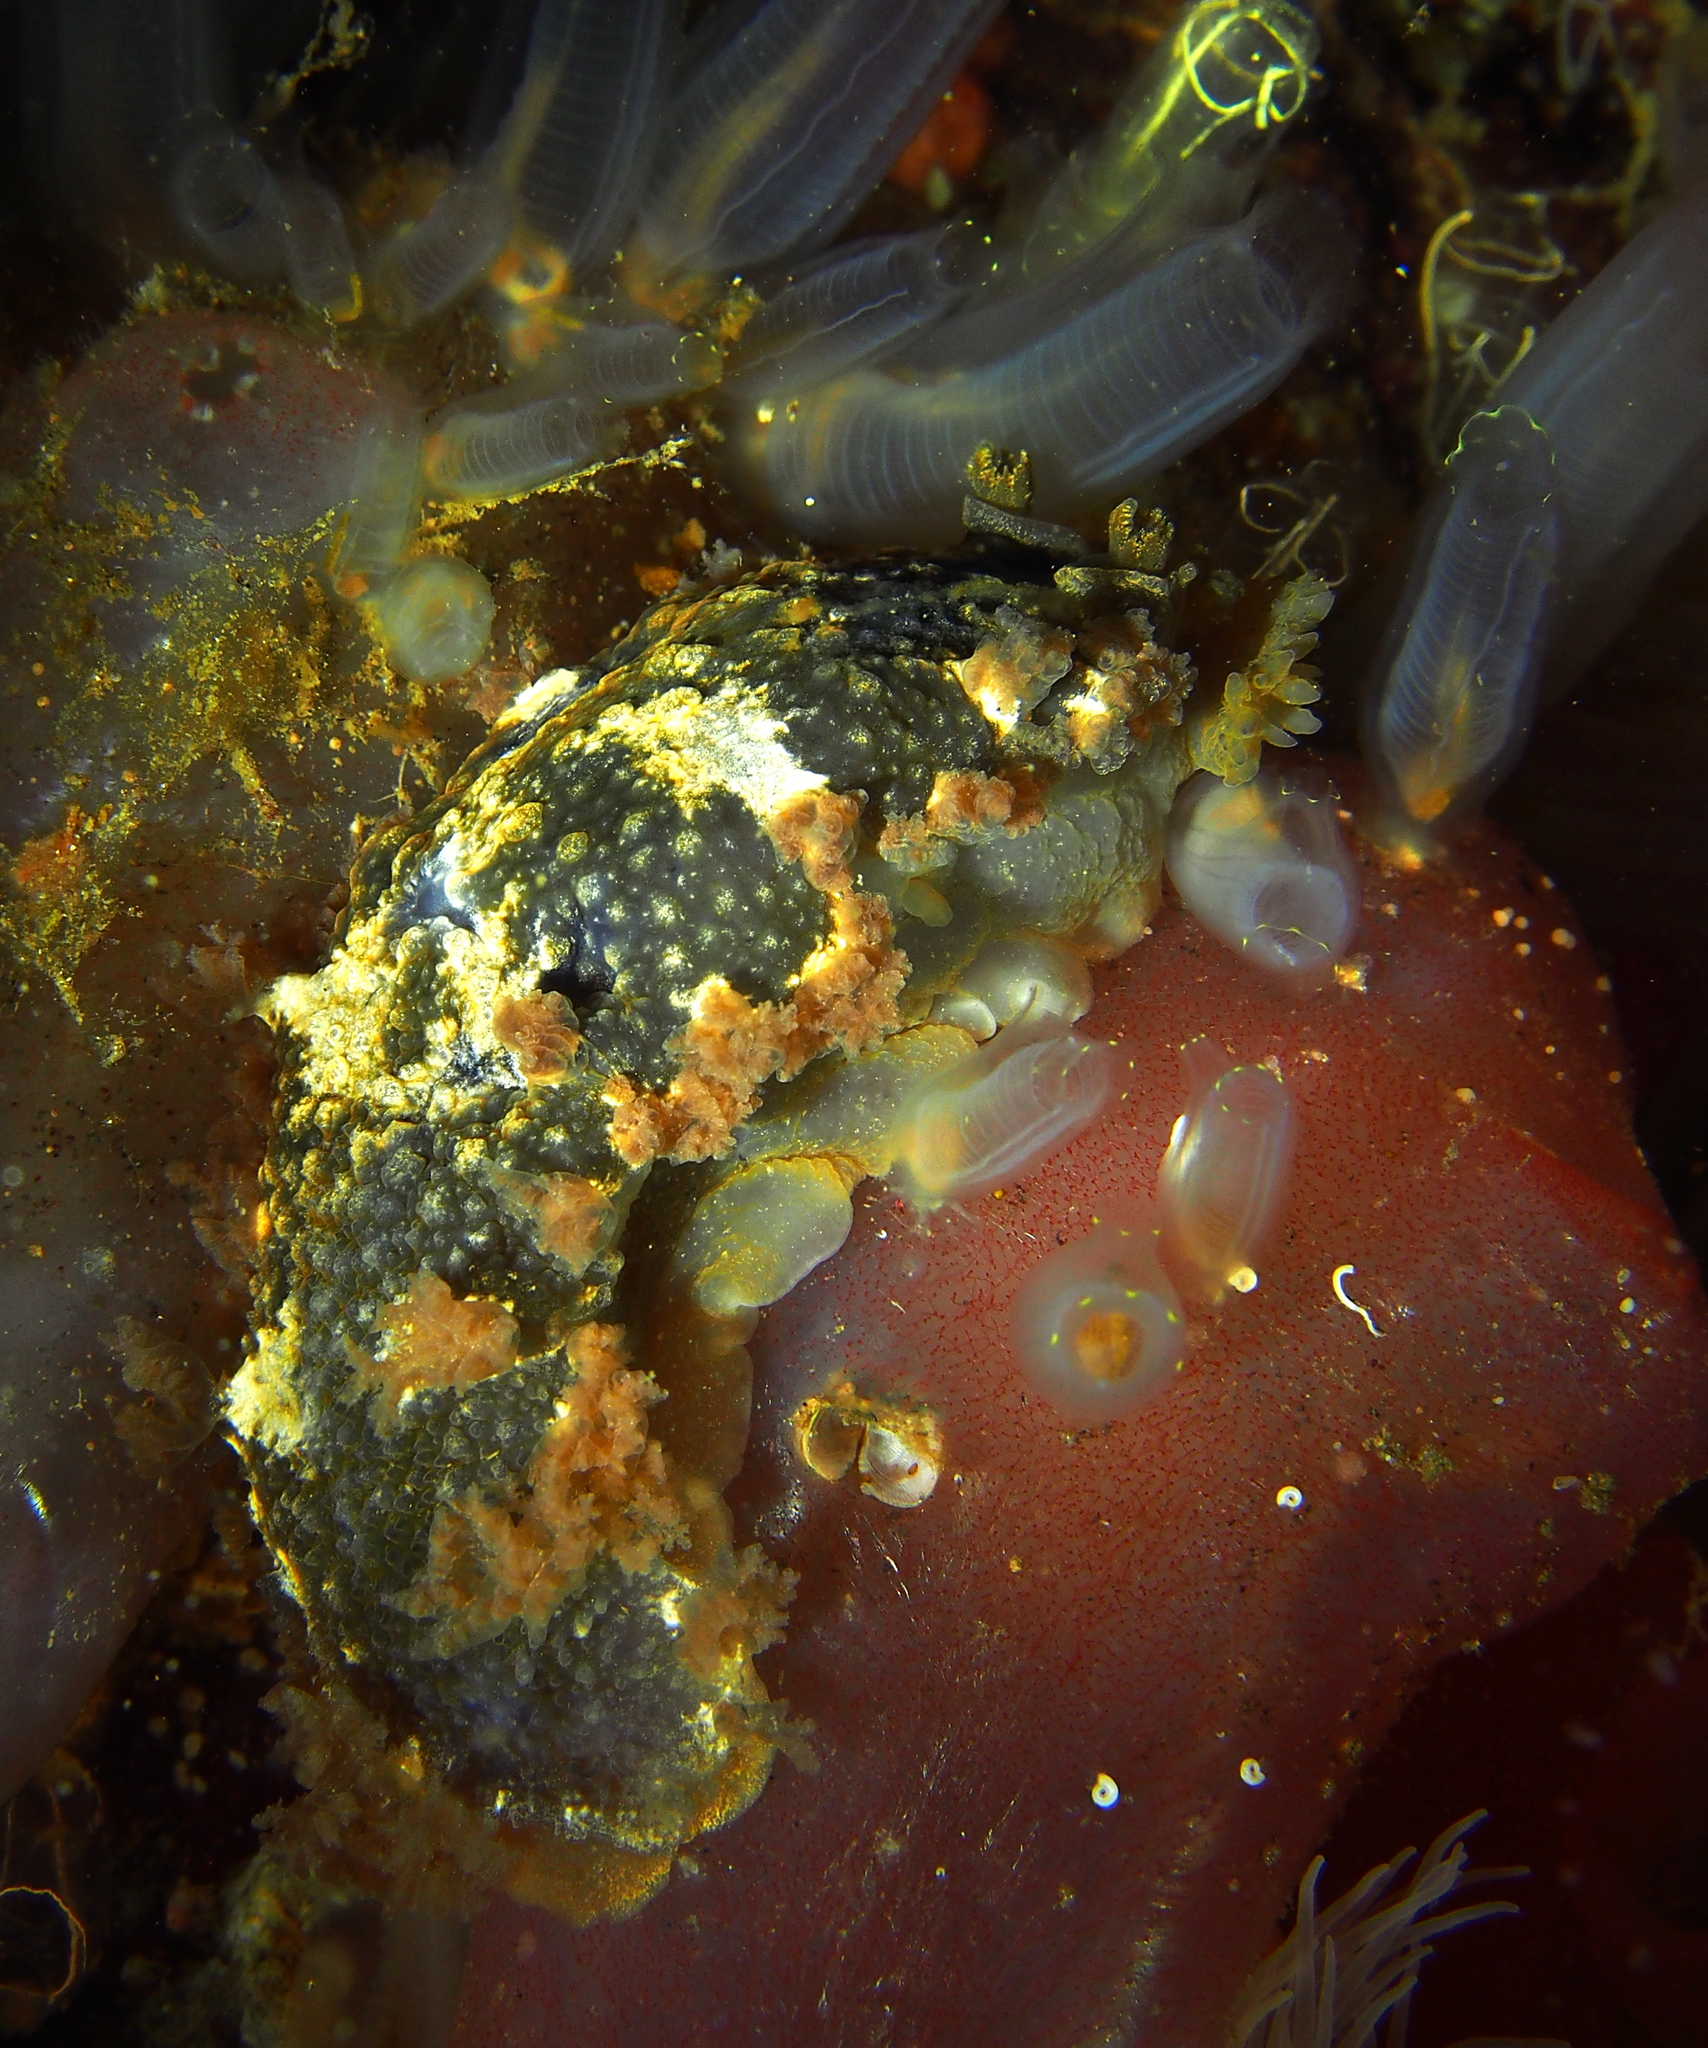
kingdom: Animalia
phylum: Mollusca
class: Gastropoda
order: Nudibranchia
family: Tritoniidae
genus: Tritonia
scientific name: Tritonia hombergii
